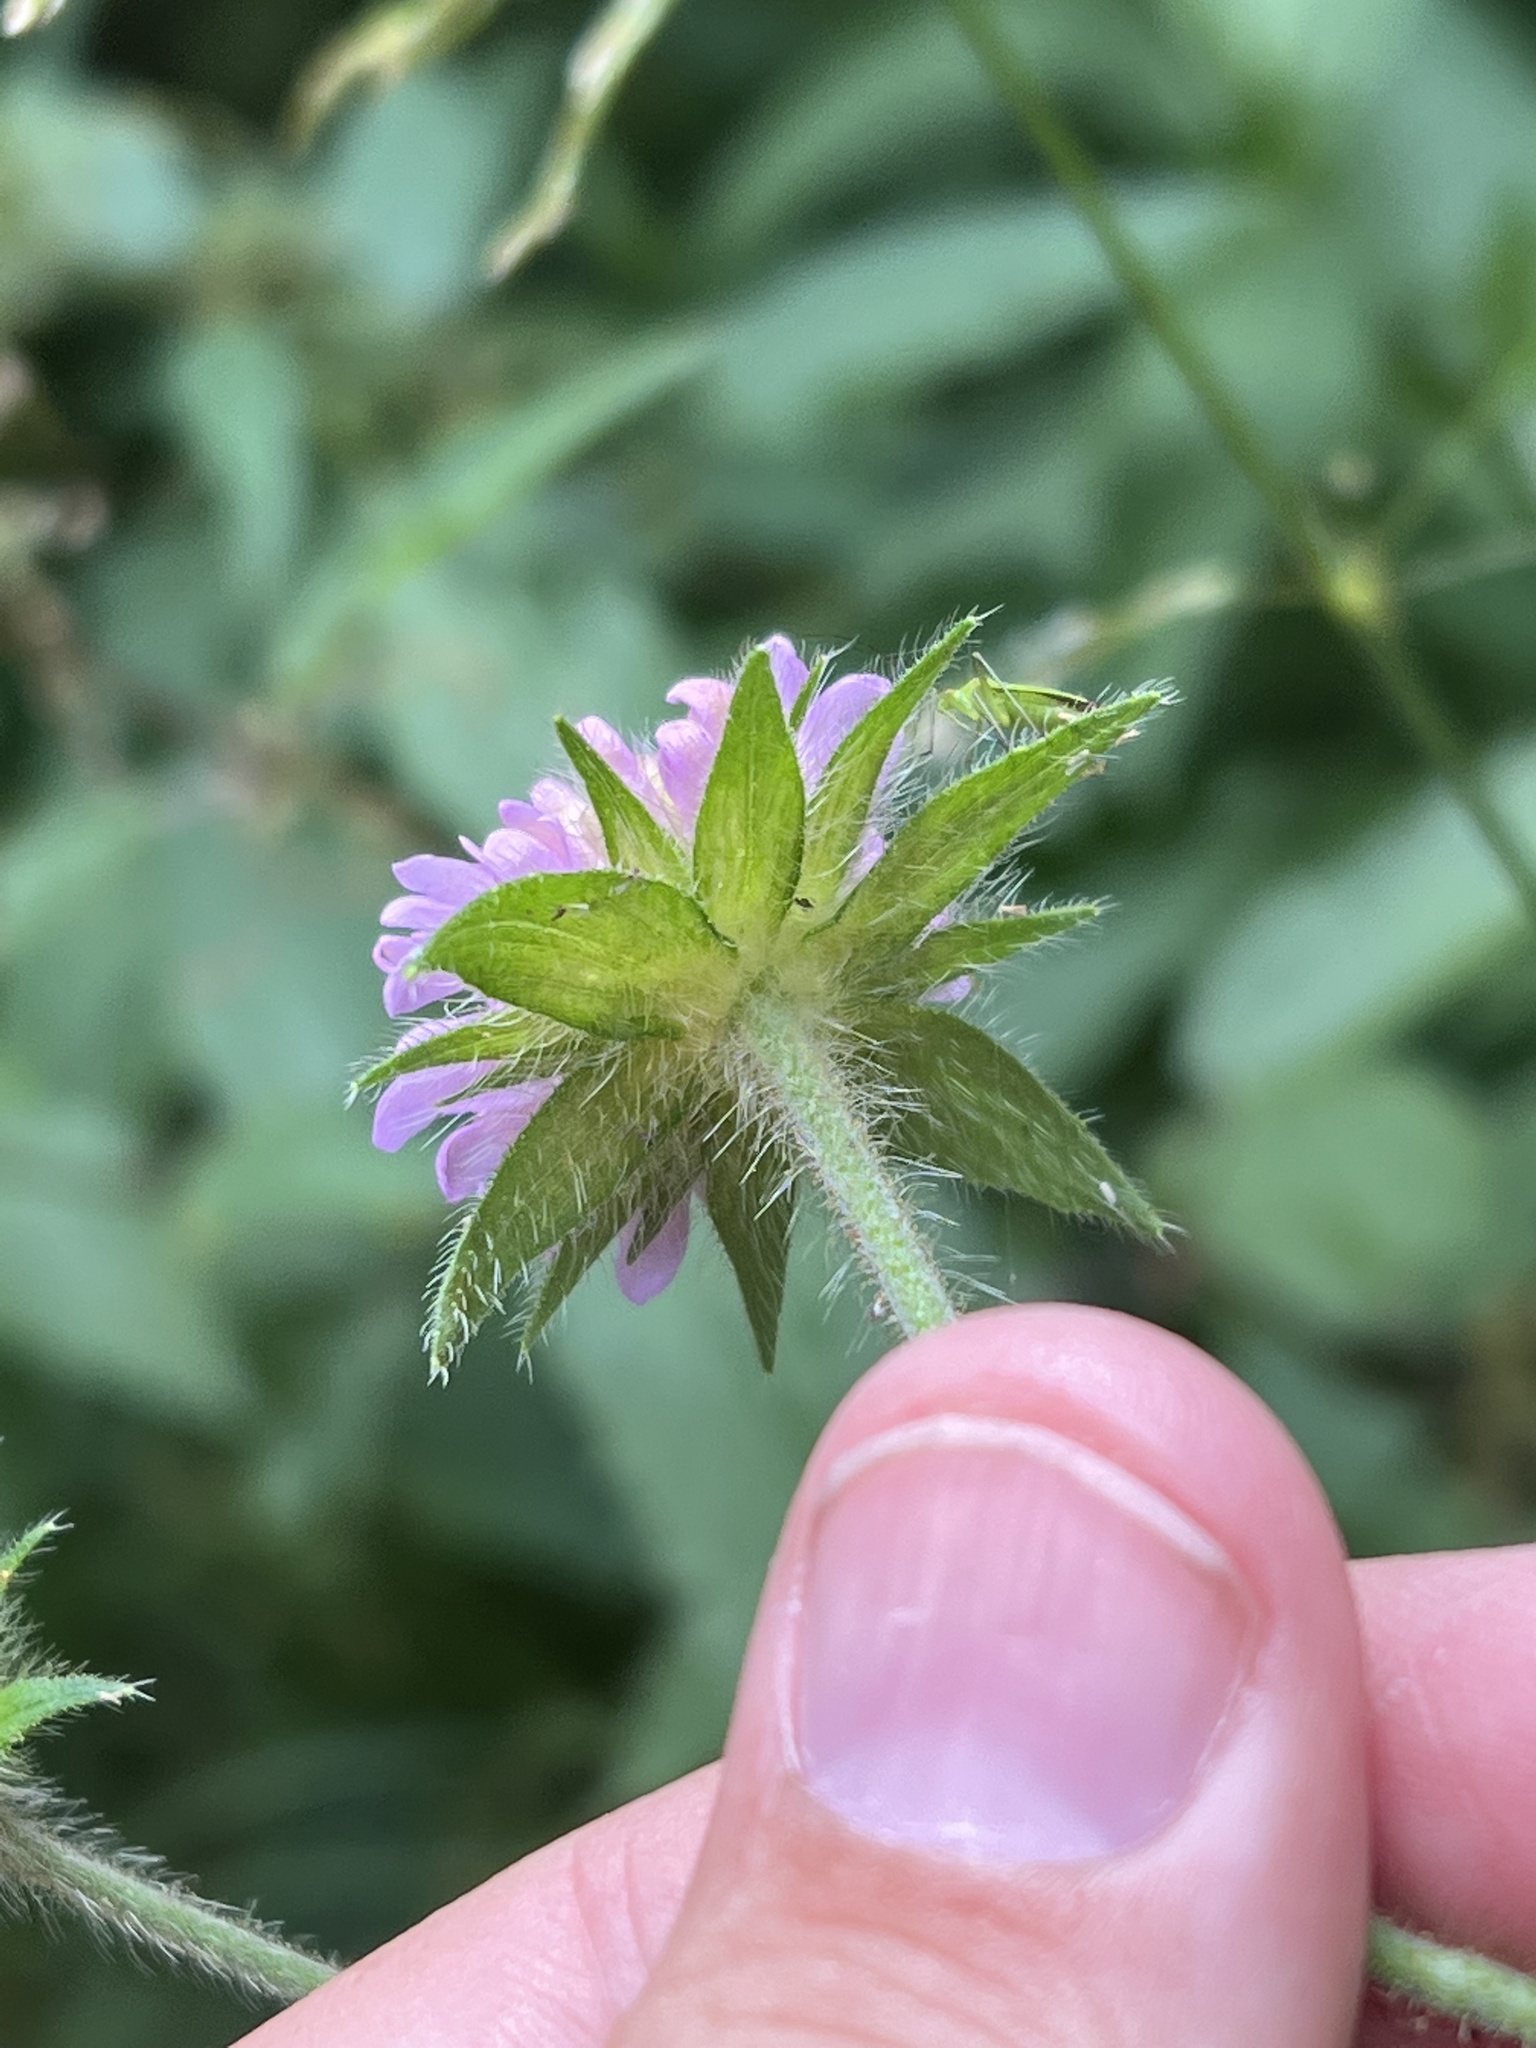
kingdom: Plantae
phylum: Tracheophyta
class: Magnoliopsida
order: Dipsacales
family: Caprifoliaceae
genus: Knautia
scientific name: Knautia dipsacifolia
